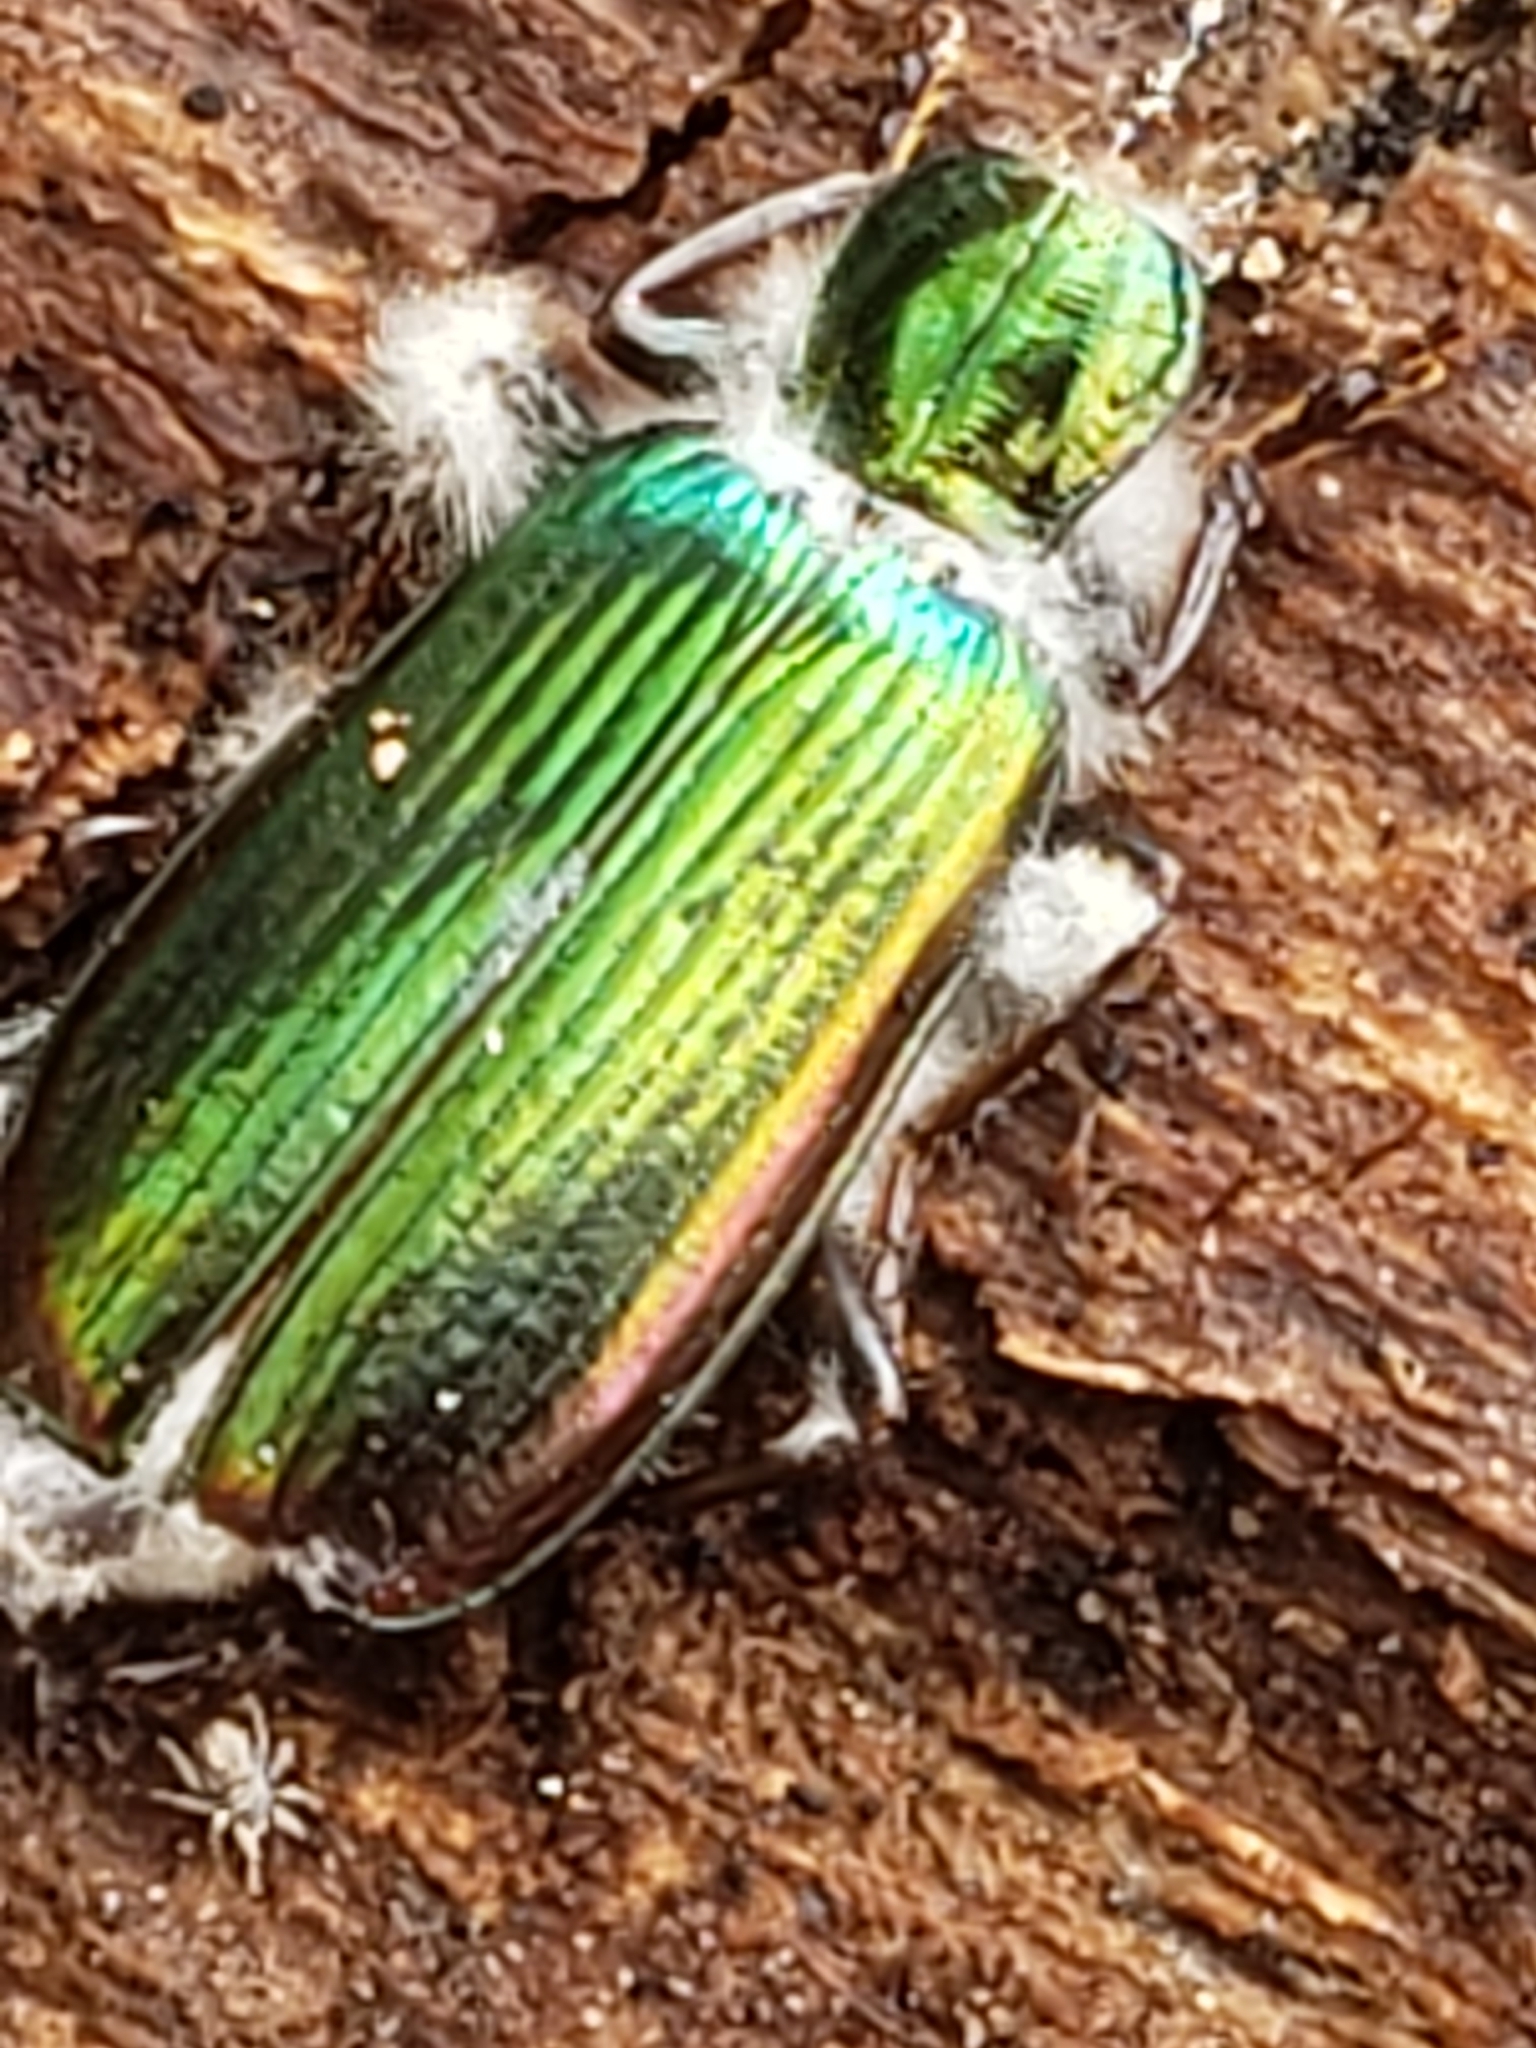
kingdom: Animalia
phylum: Arthropoda
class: Insecta
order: Coleoptera
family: Carabidae
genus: Calleida
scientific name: Calleida viridipennis
